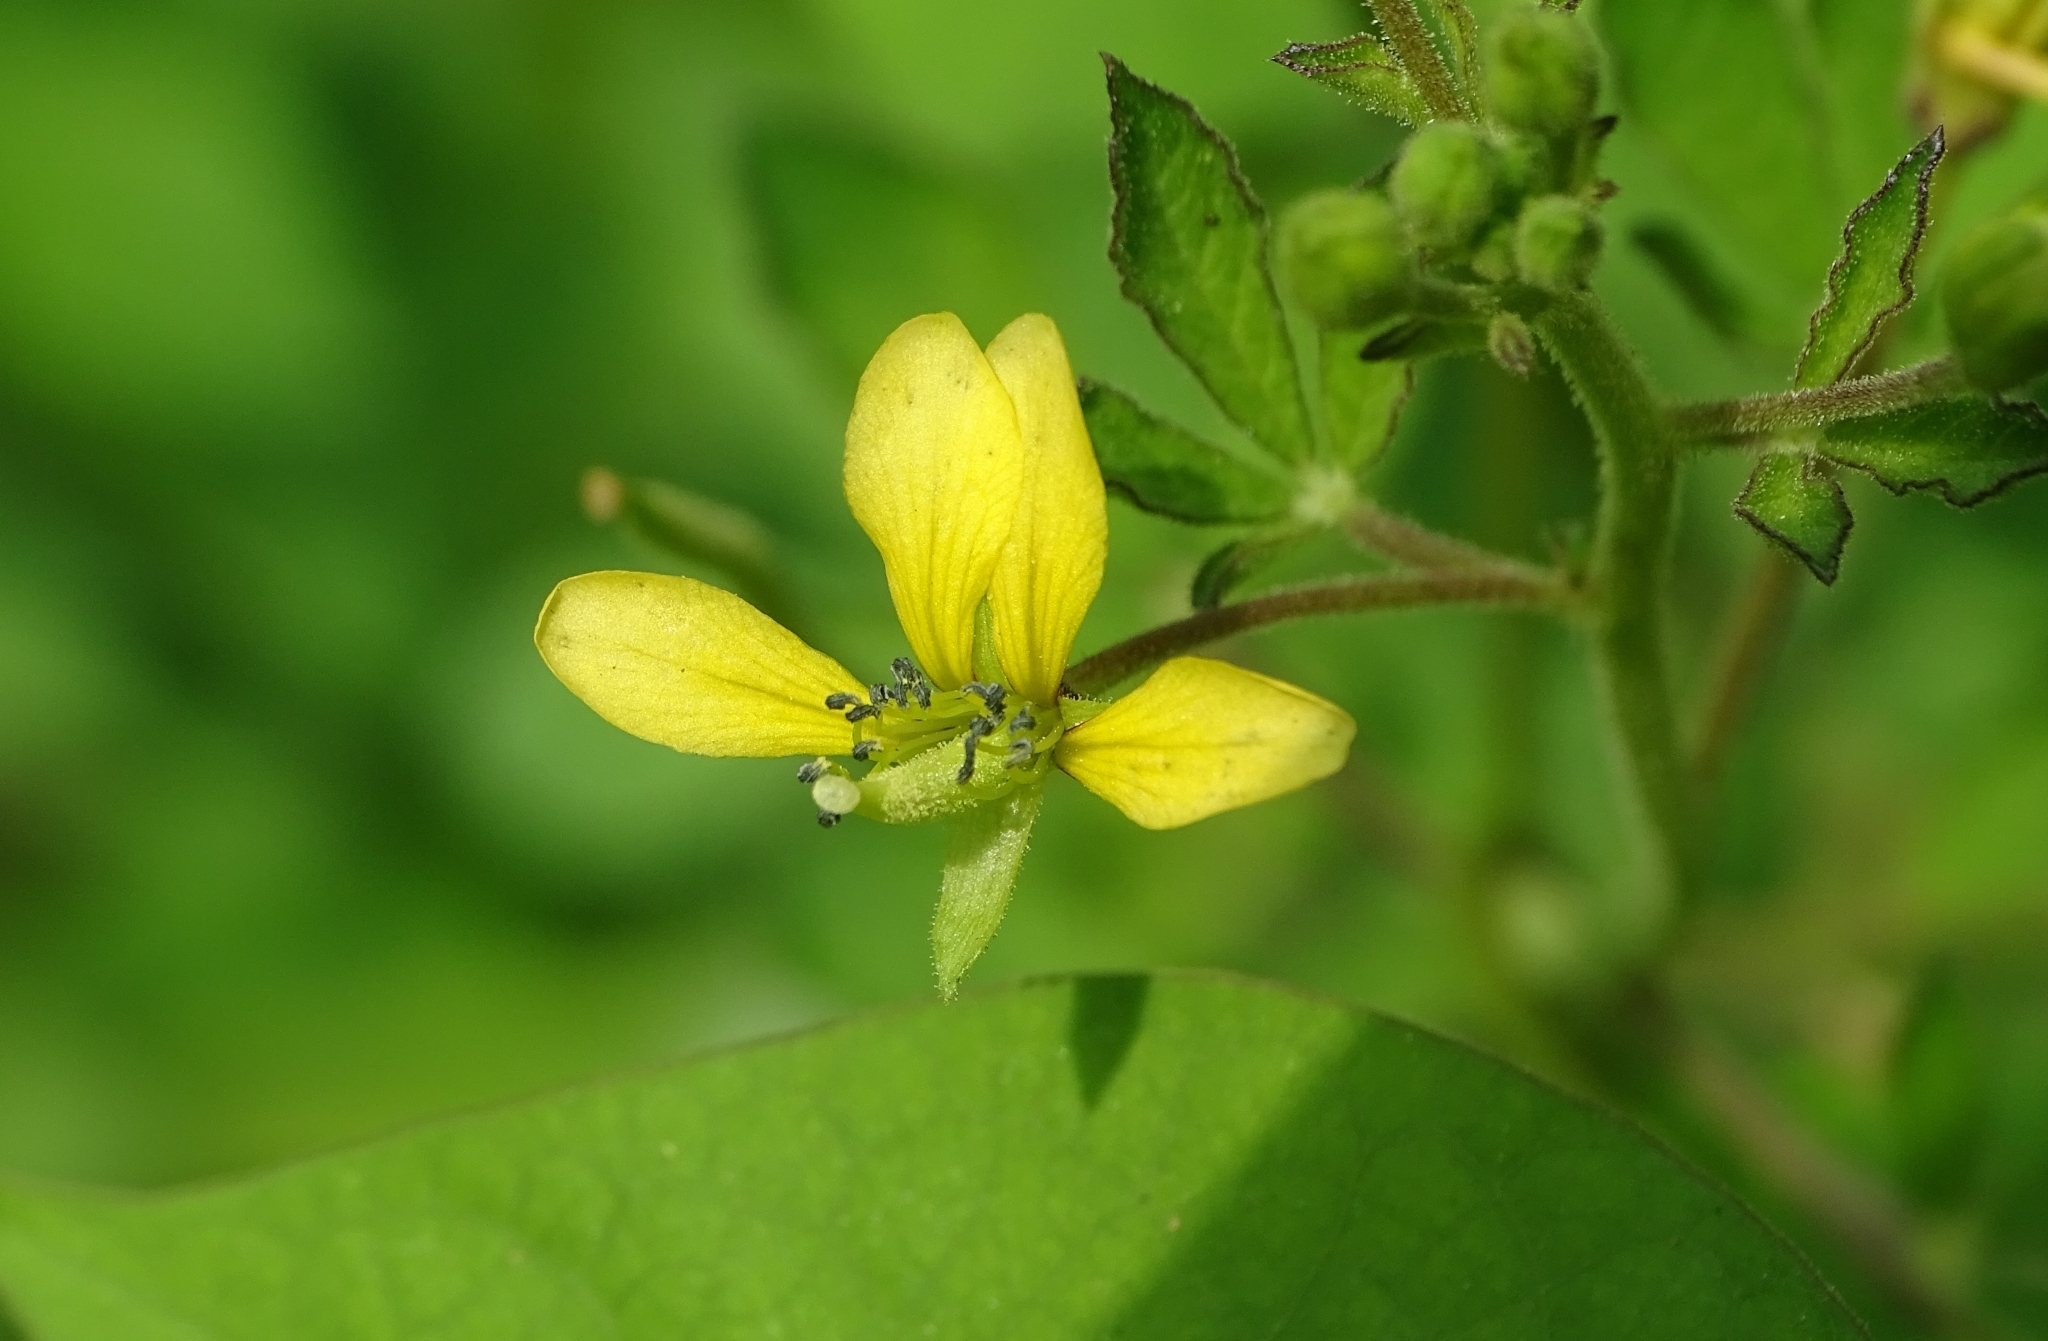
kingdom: Plantae
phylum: Tracheophyta
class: Magnoliopsida
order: Brassicales
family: Cleomaceae
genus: Arivela
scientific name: Arivela viscosa
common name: Asian spiderflower
